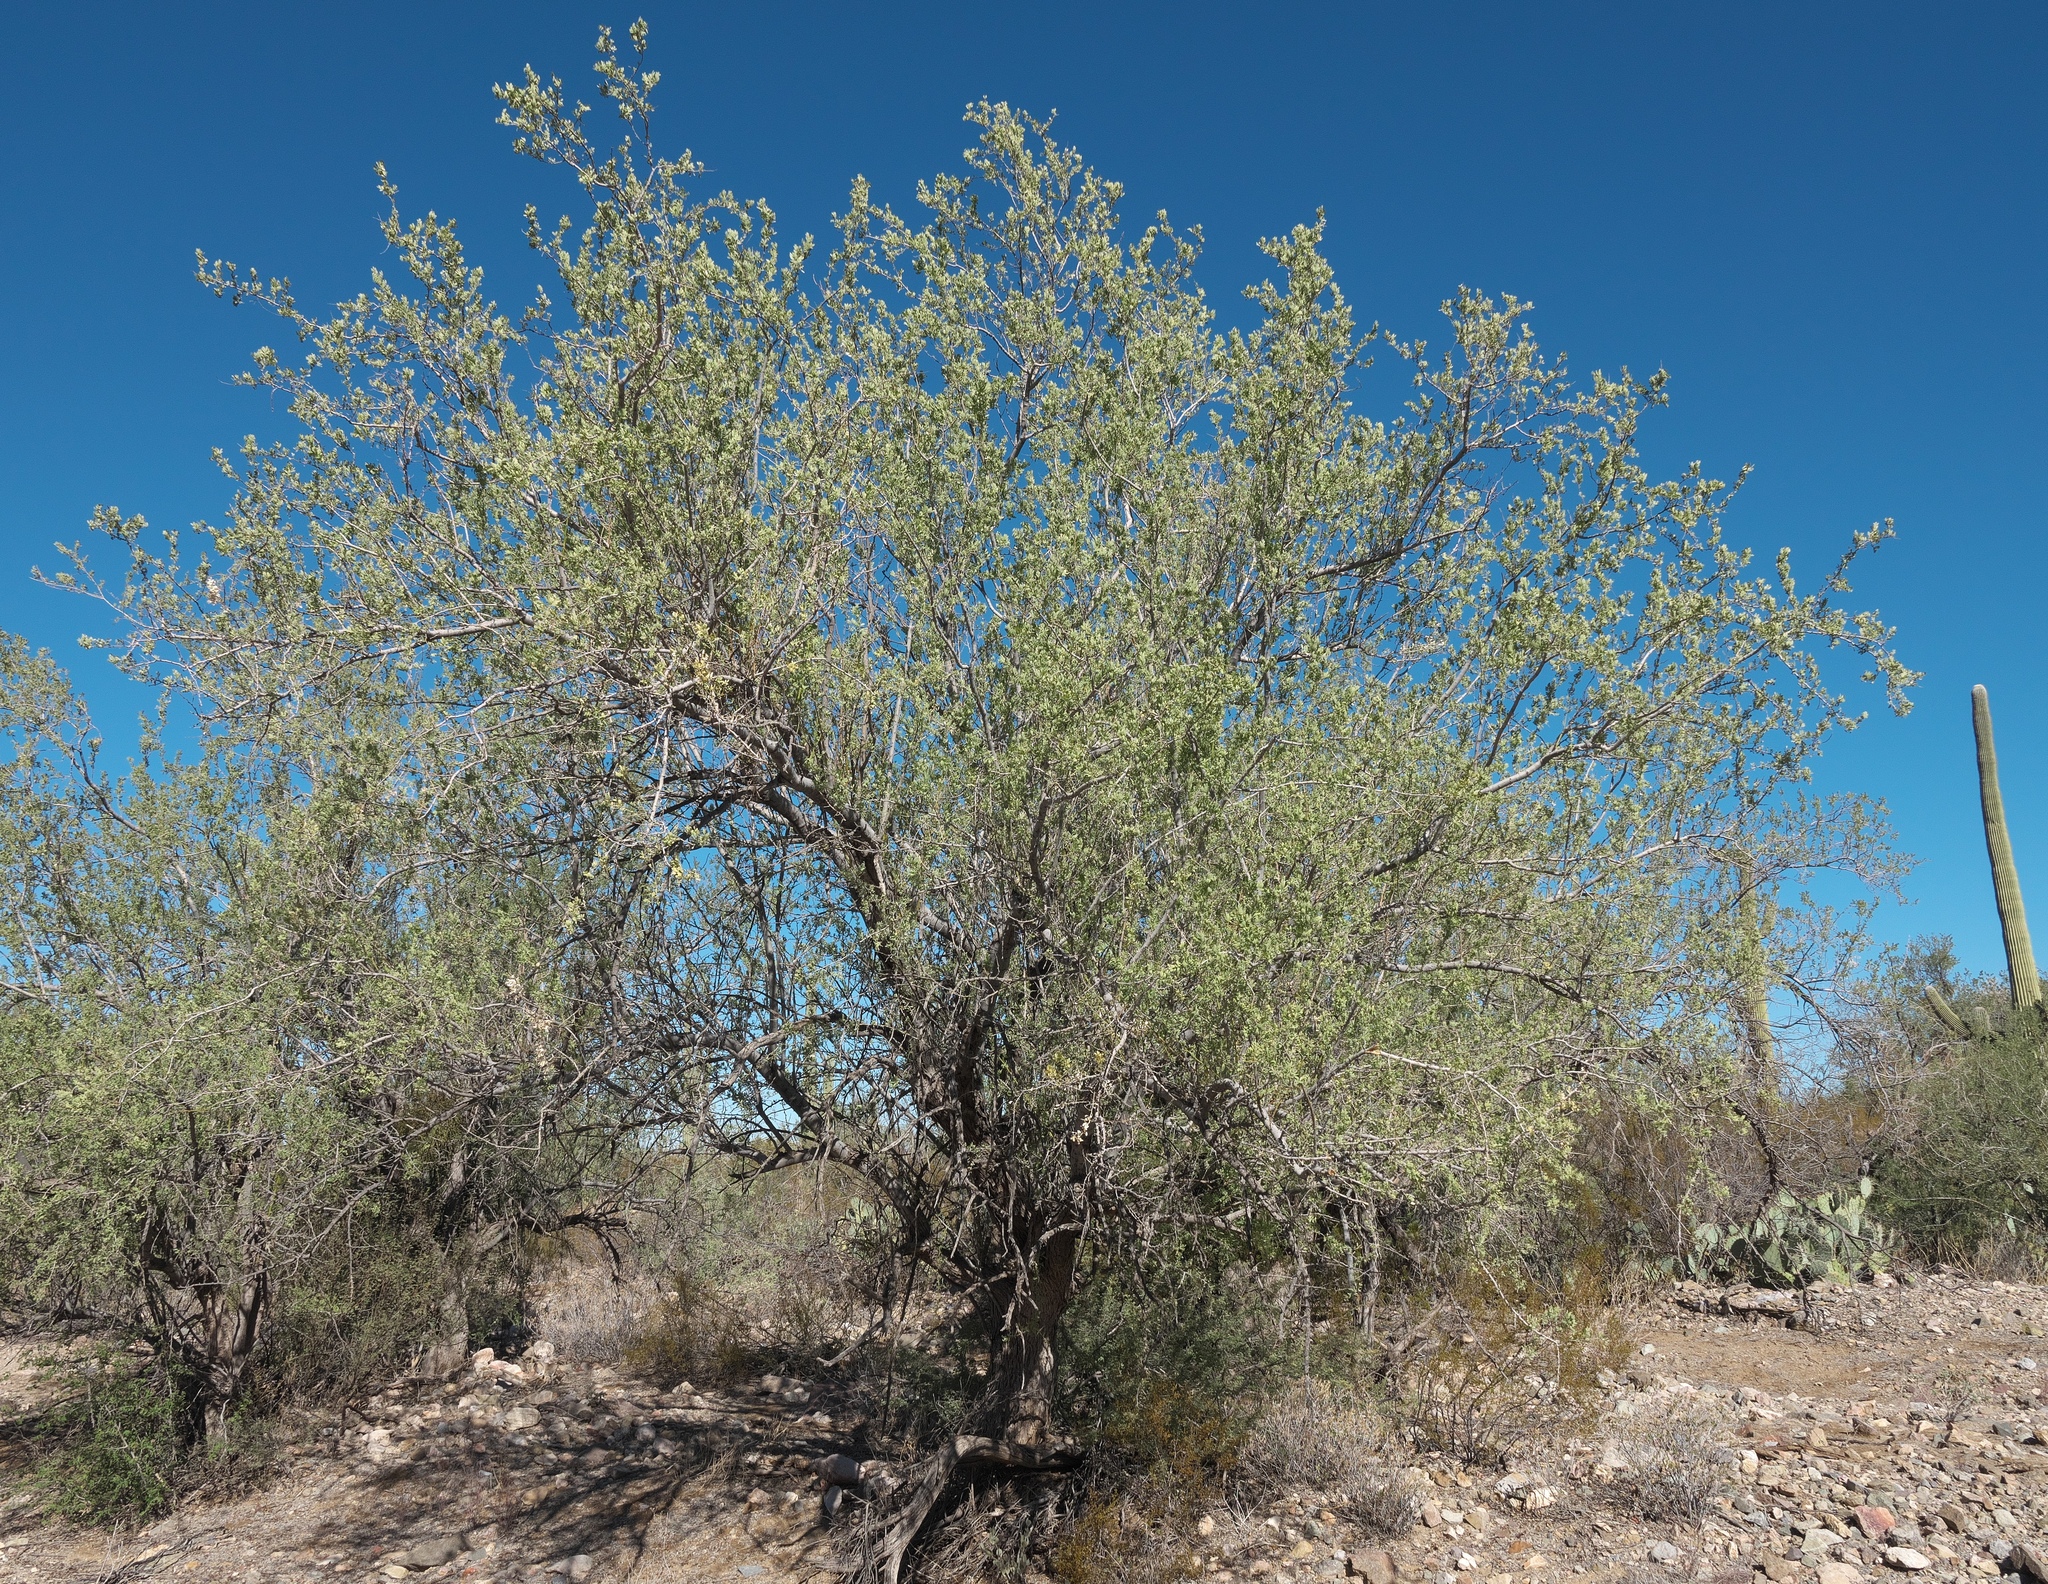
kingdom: Plantae
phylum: Tracheophyta
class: Magnoliopsida
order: Fabales
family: Fabaceae
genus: Olneya
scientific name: Olneya tesota
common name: Desert ironwood
